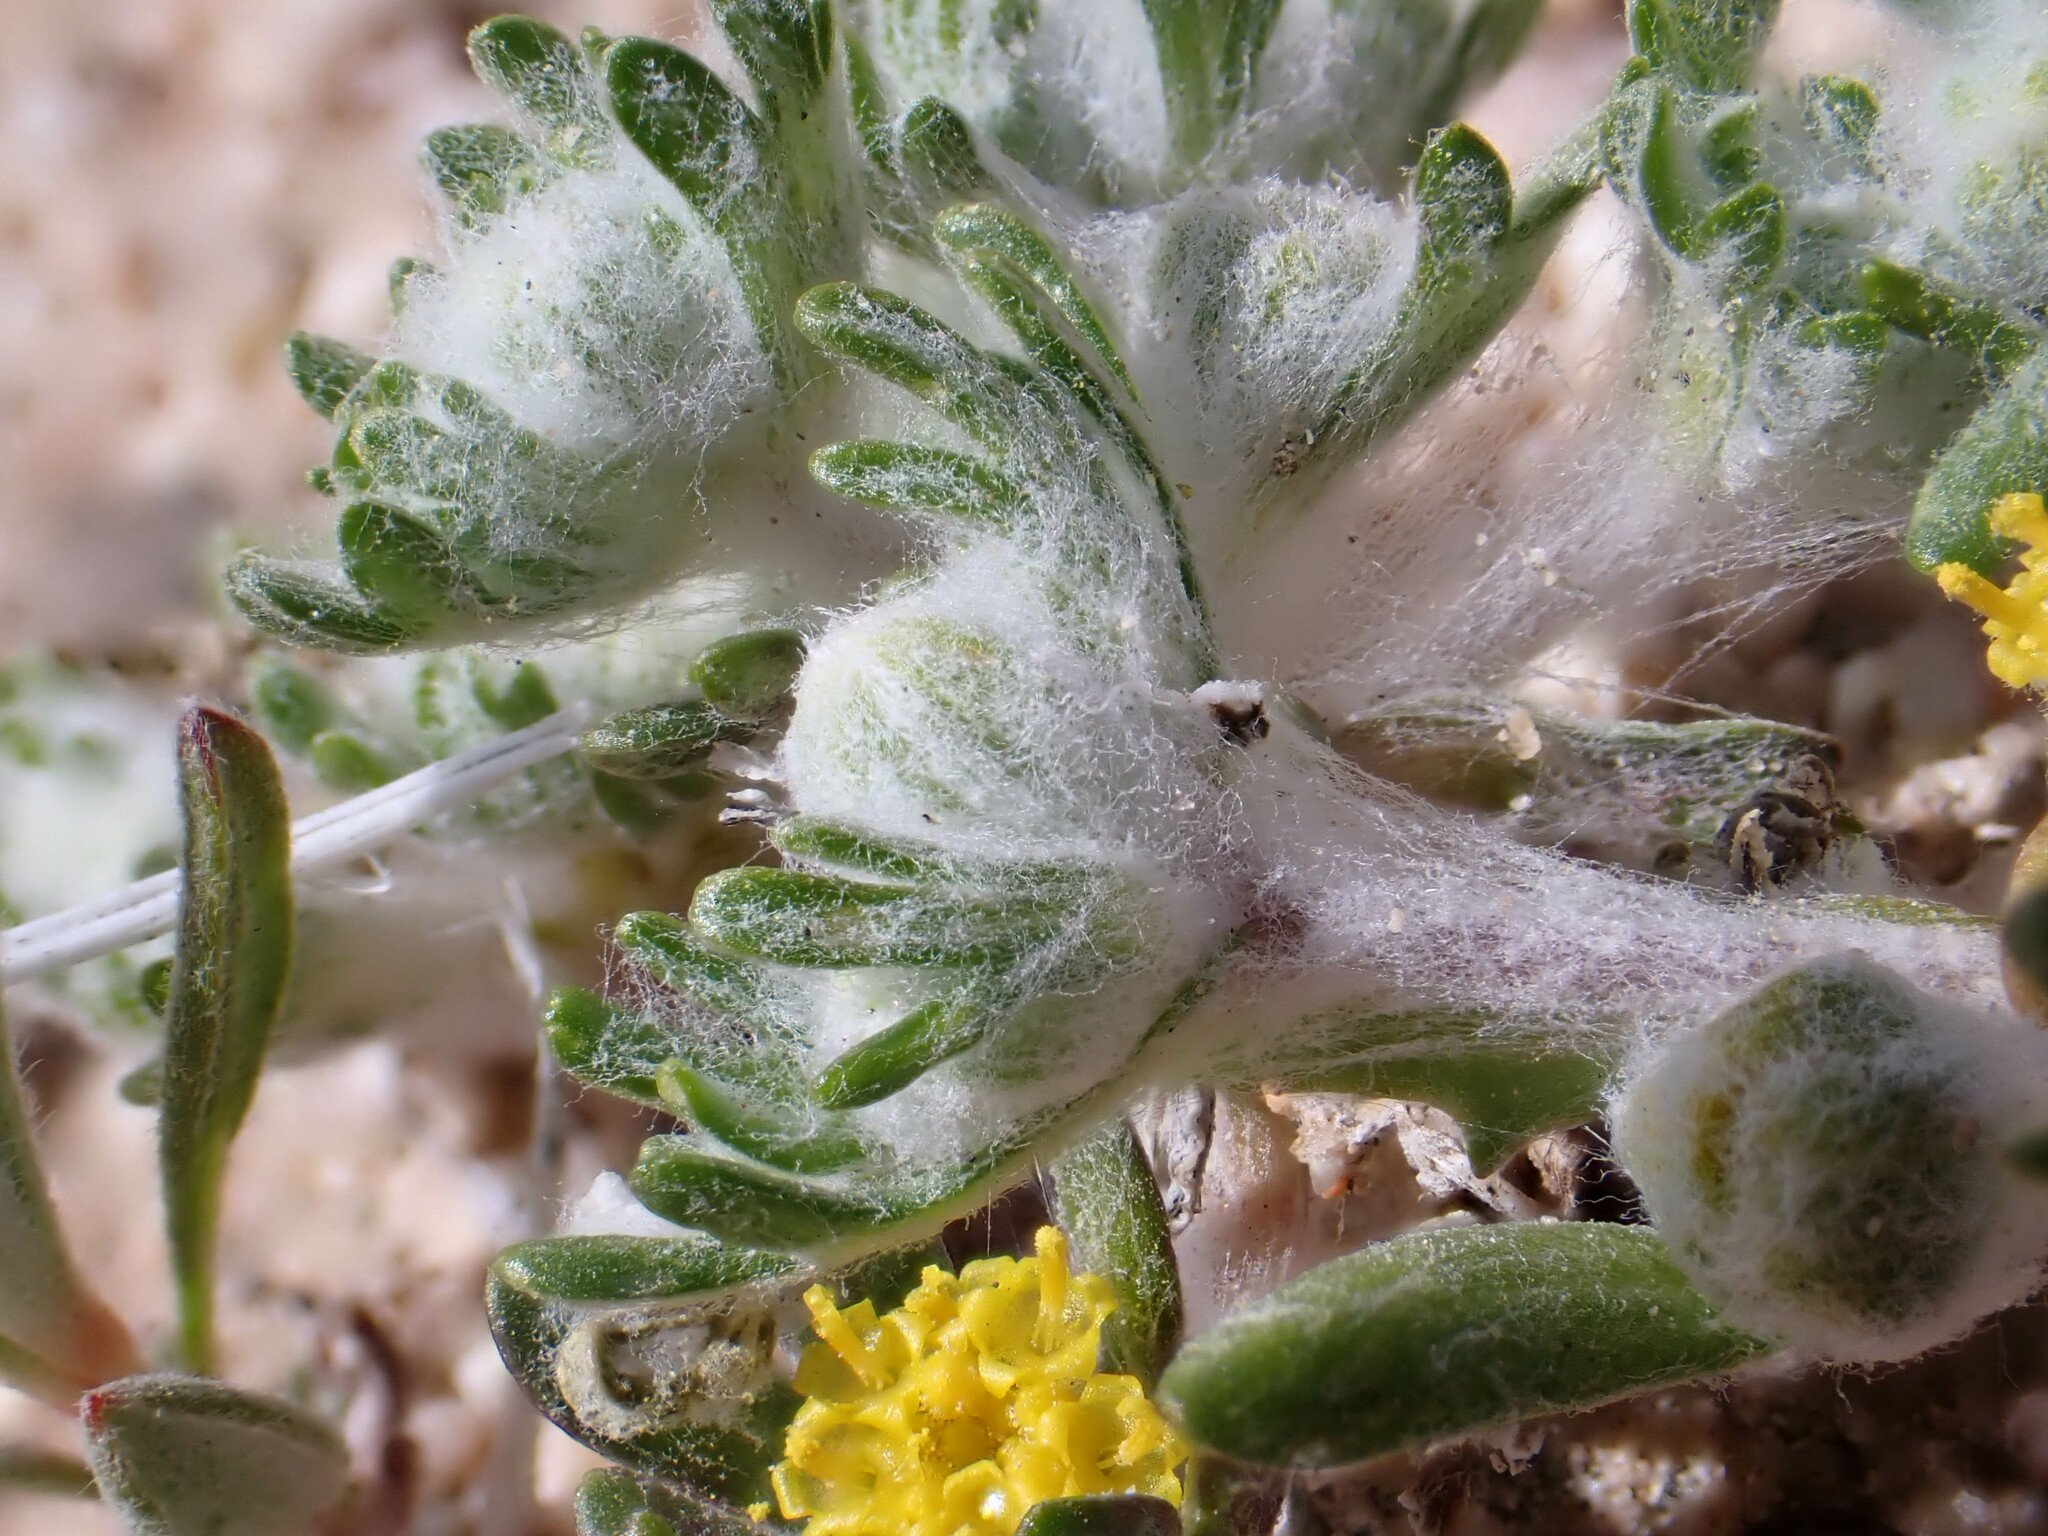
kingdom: Plantae
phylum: Tracheophyta
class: Magnoliopsida
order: Asterales
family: Asteraceae
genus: Eriophyllum
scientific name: Eriophyllum pringlei
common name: Pringle's woolly-sunflower
